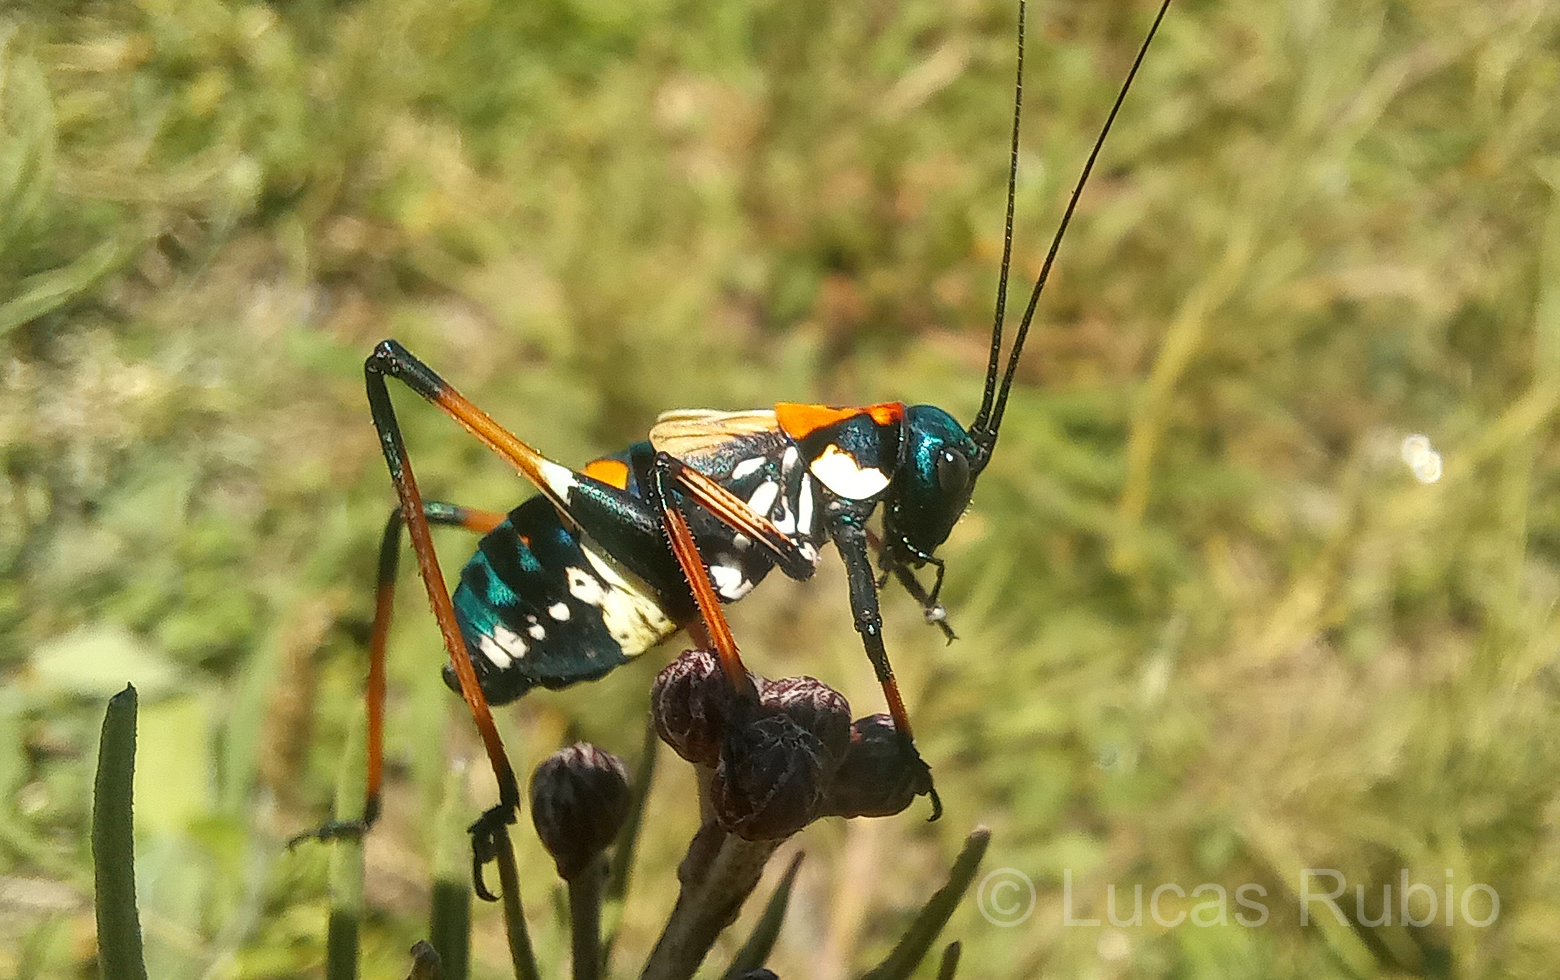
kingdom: Animalia
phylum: Arthropoda
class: Insecta
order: Orthoptera
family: Tettigoniidae
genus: Scaphura
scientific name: Scaphura elegans
